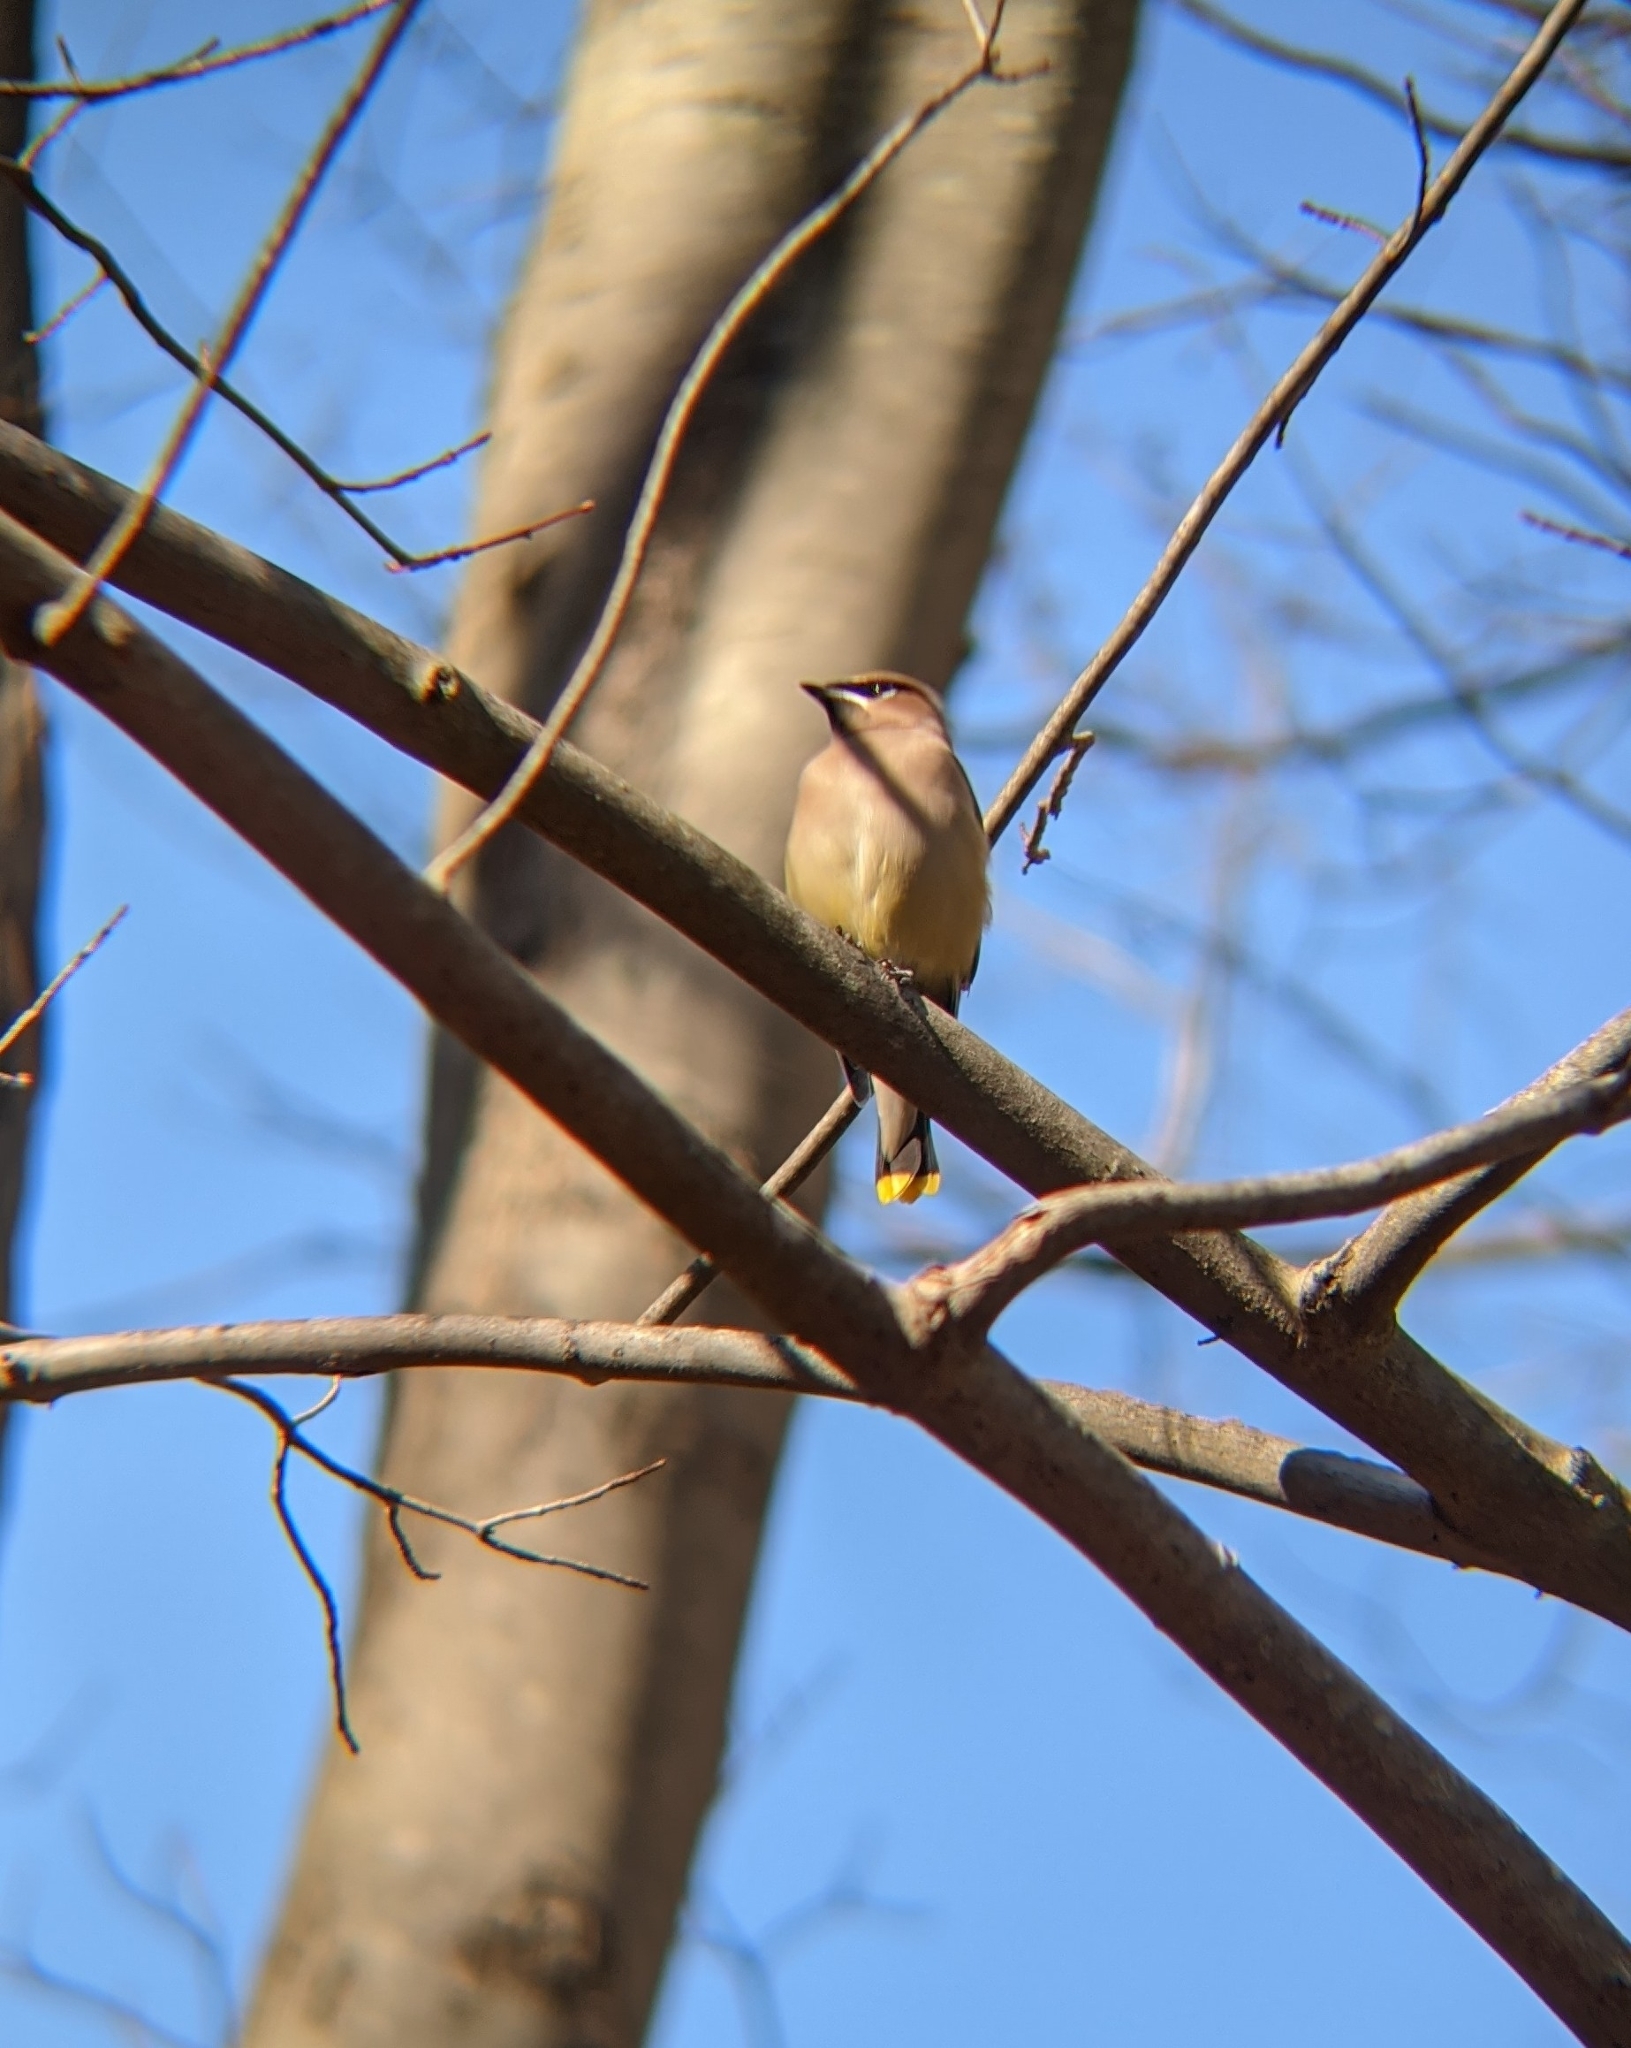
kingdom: Animalia
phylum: Chordata
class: Aves
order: Passeriformes
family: Bombycillidae
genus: Bombycilla
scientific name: Bombycilla cedrorum
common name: Cedar waxwing
